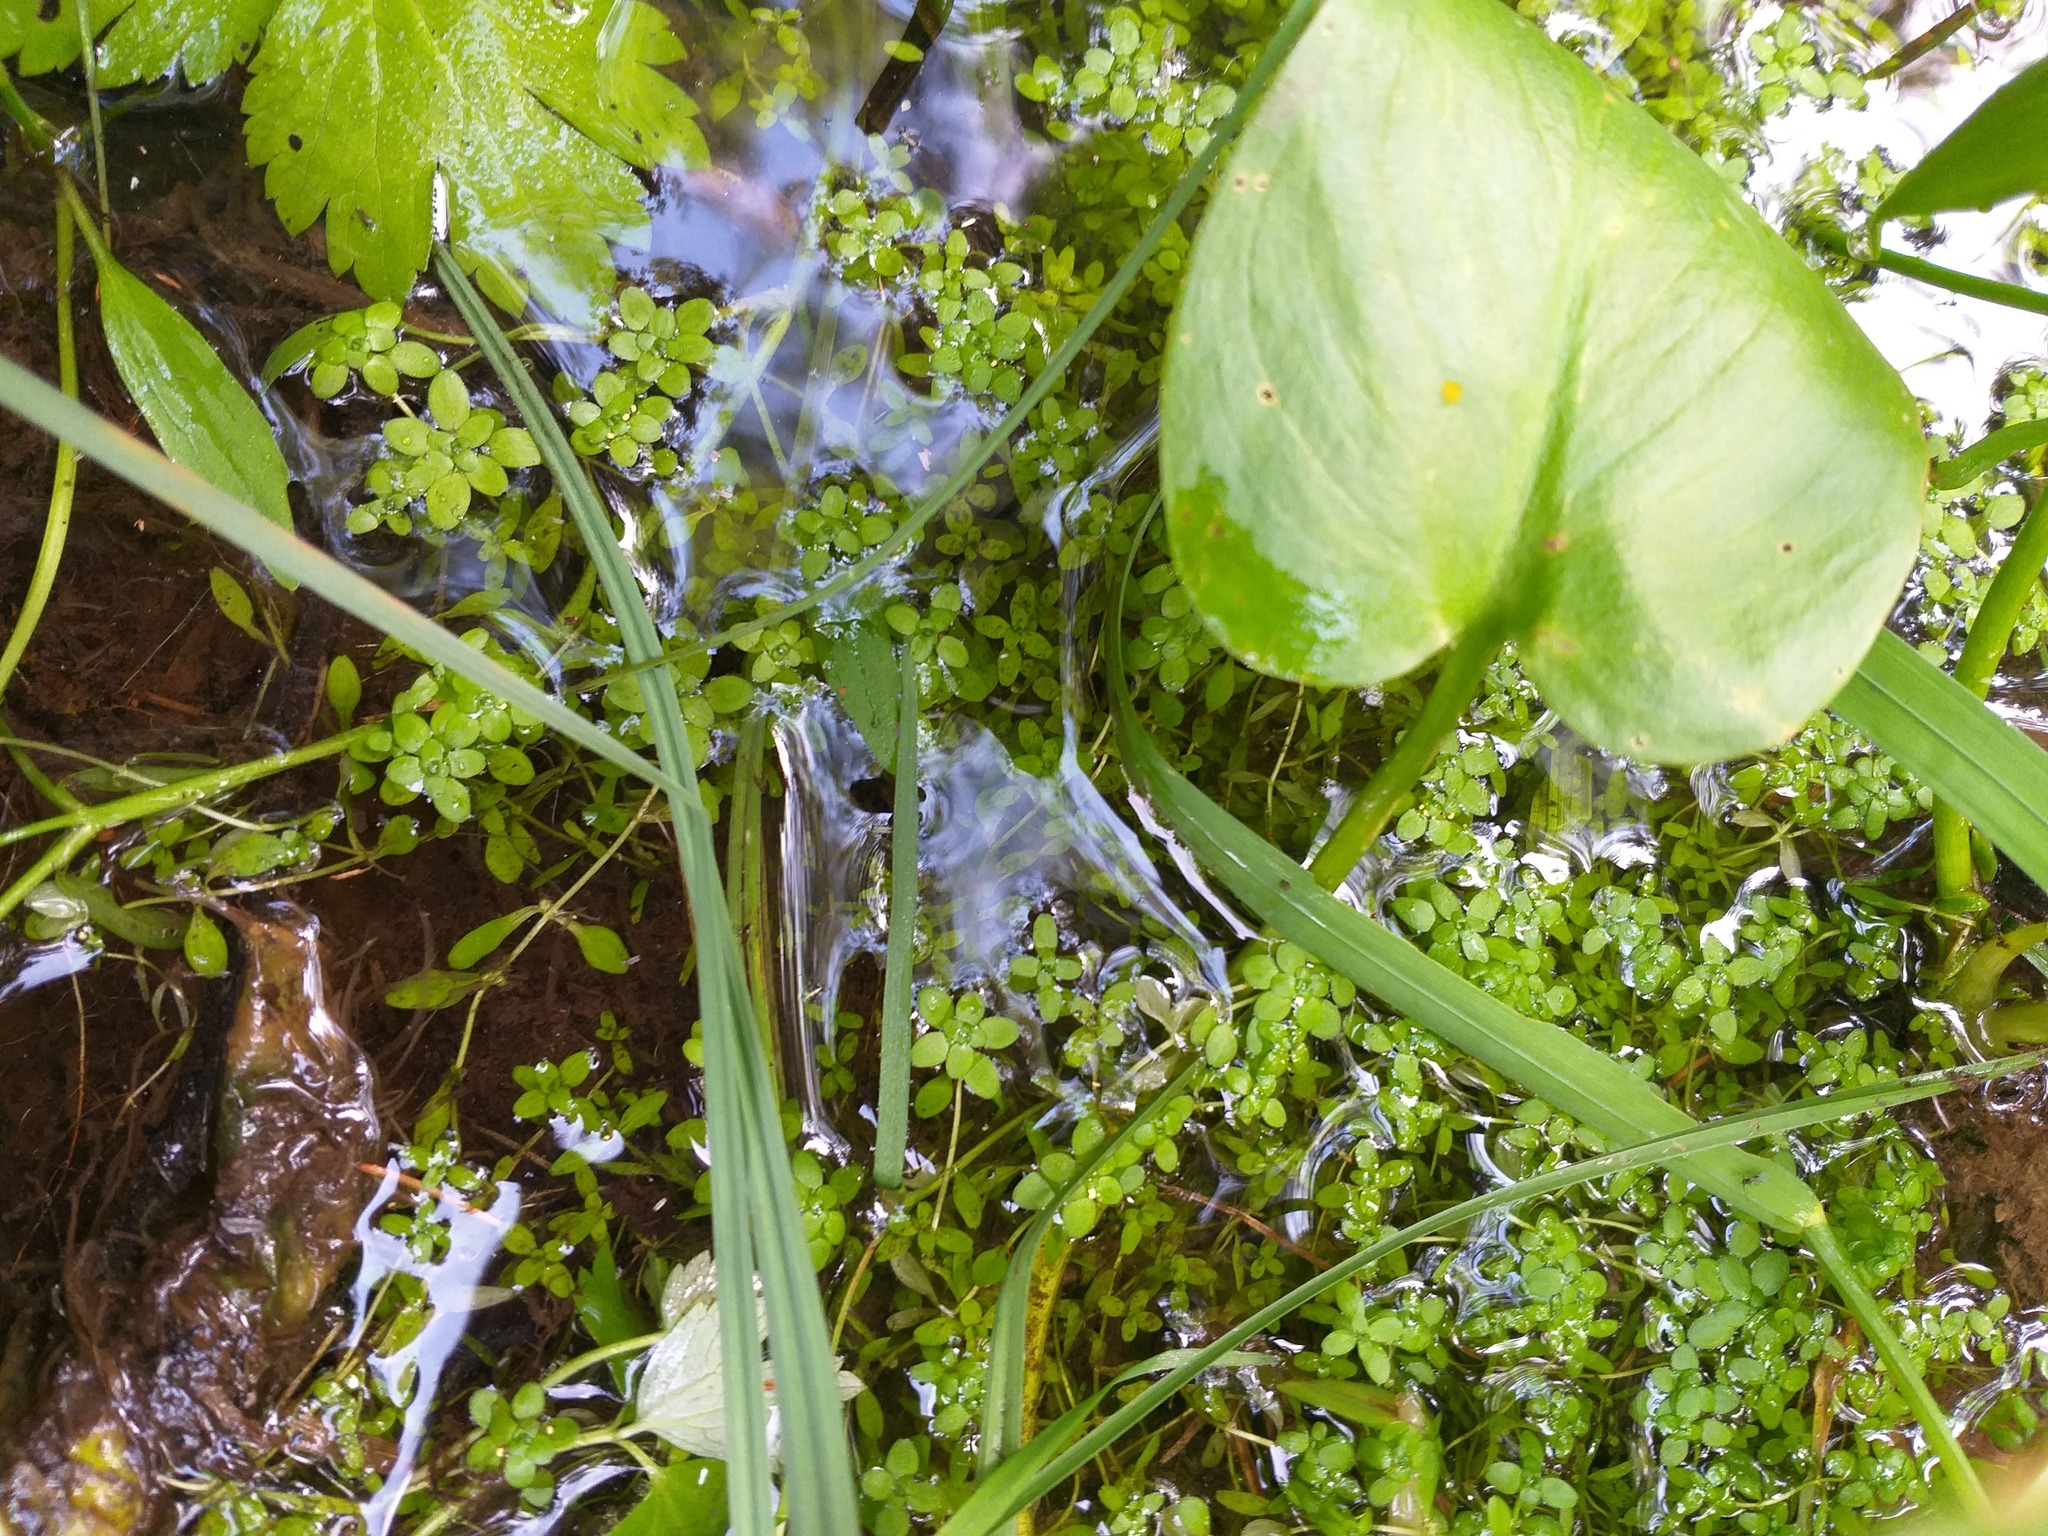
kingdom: Plantae
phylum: Tracheophyta
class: Magnoliopsida
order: Lamiales
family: Plantaginaceae
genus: Callitriche
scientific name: Callitriche cophocarpa
